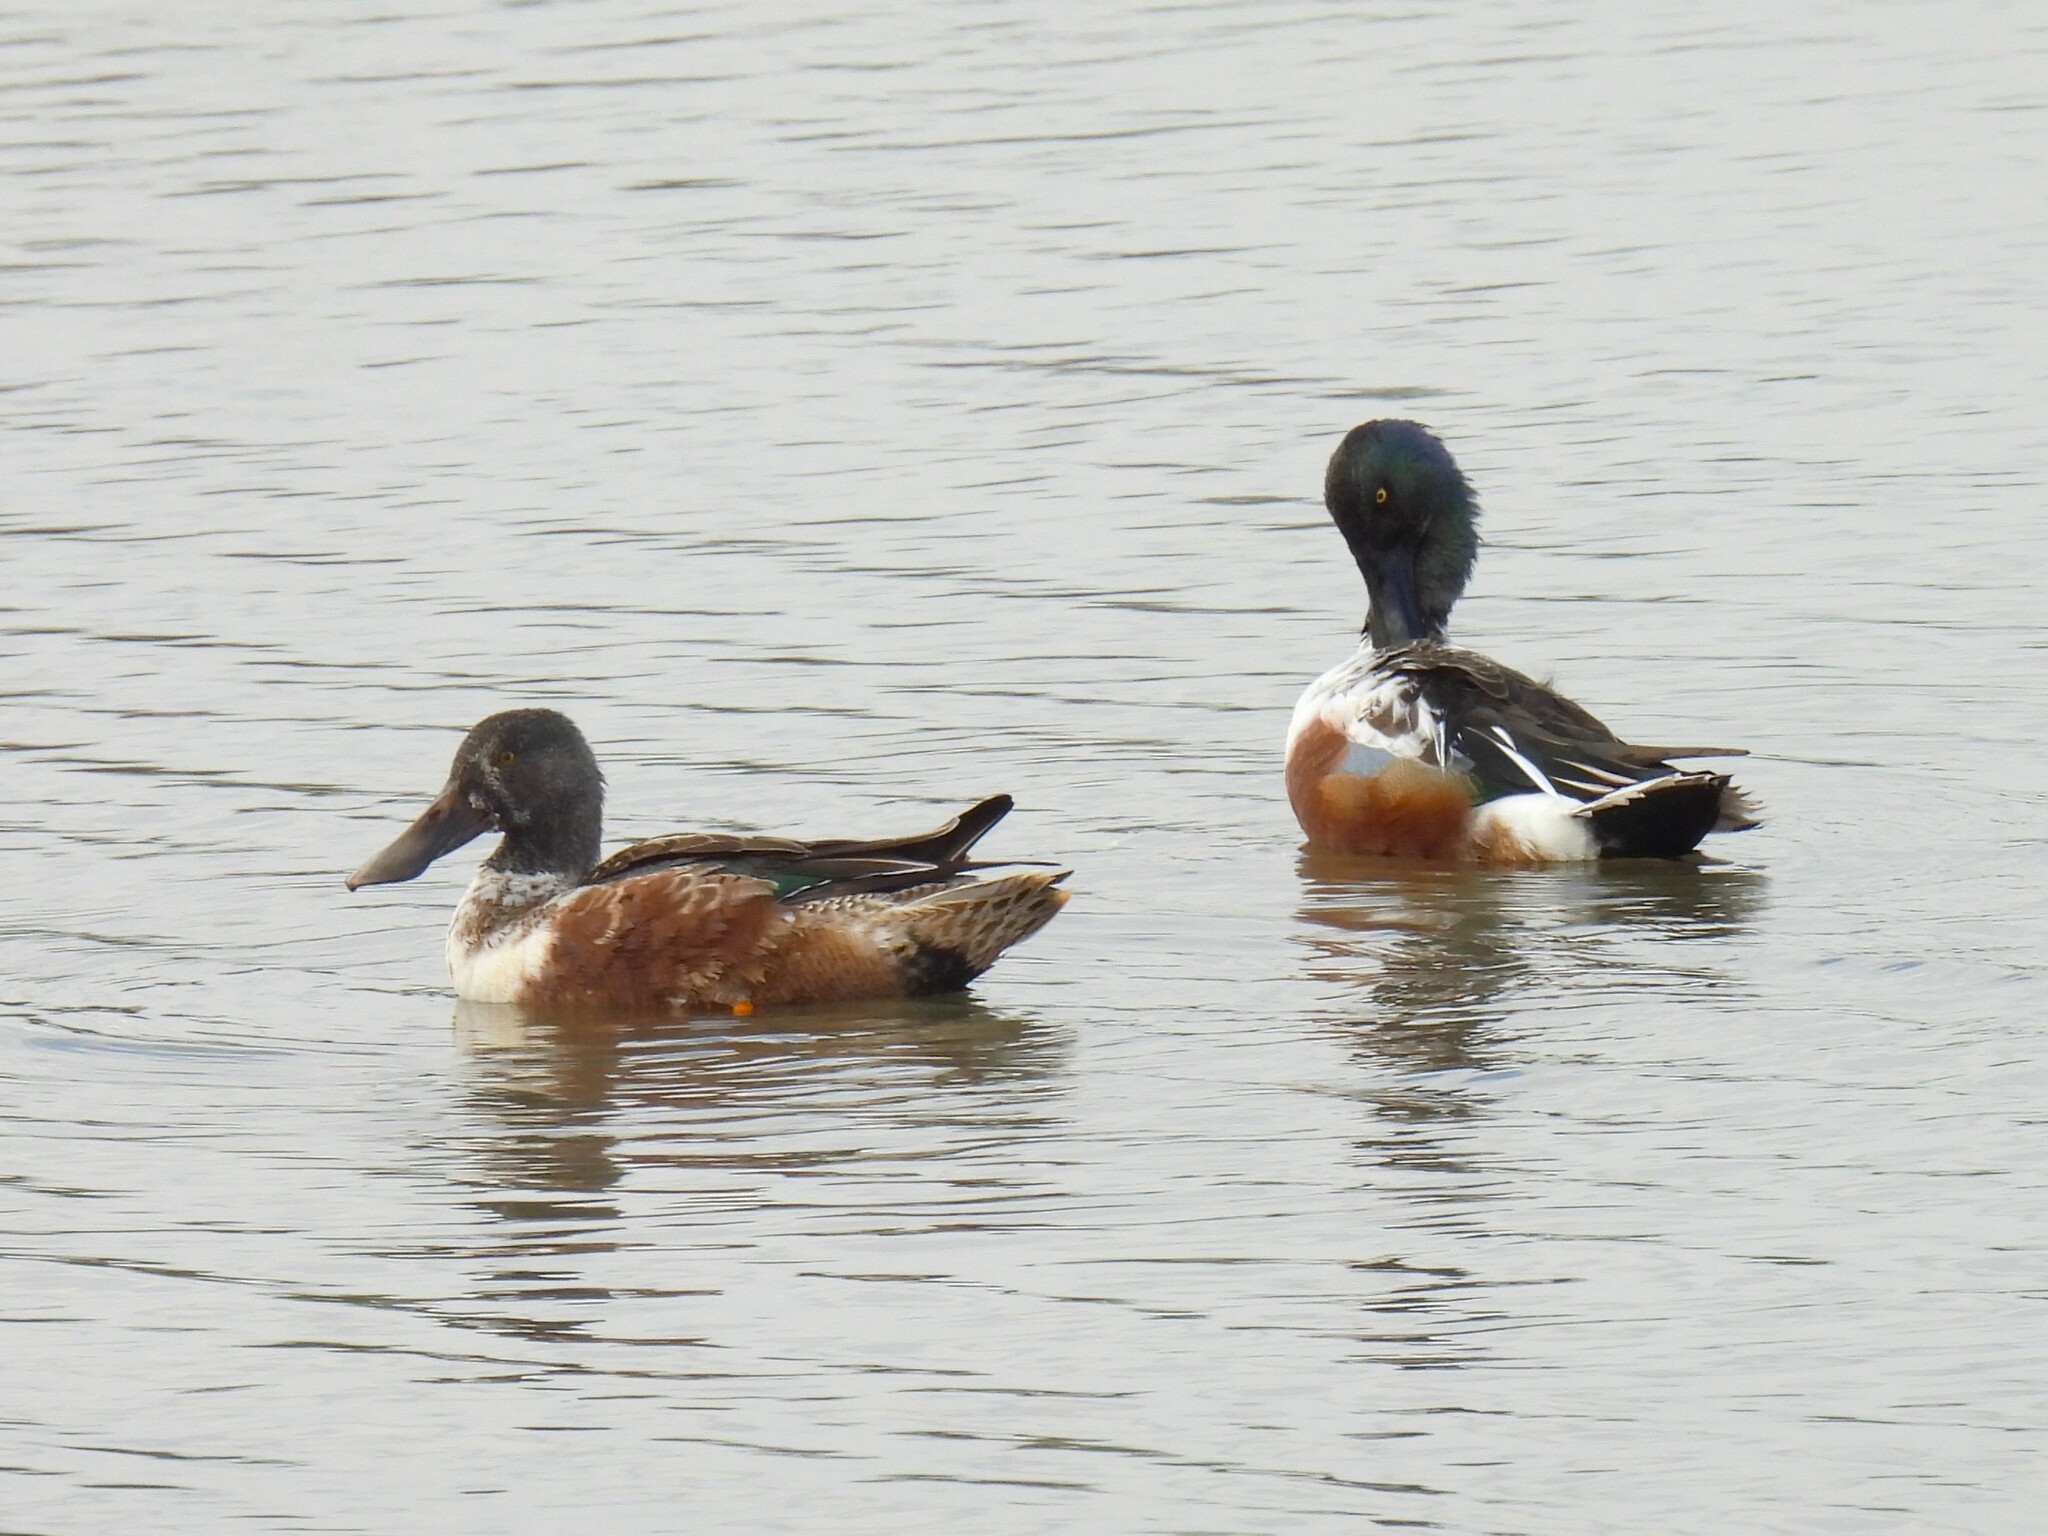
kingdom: Animalia
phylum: Chordata
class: Aves
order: Anseriformes
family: Anatidae
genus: Spatula
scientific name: Spatula clypeata
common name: Northern shoveler
